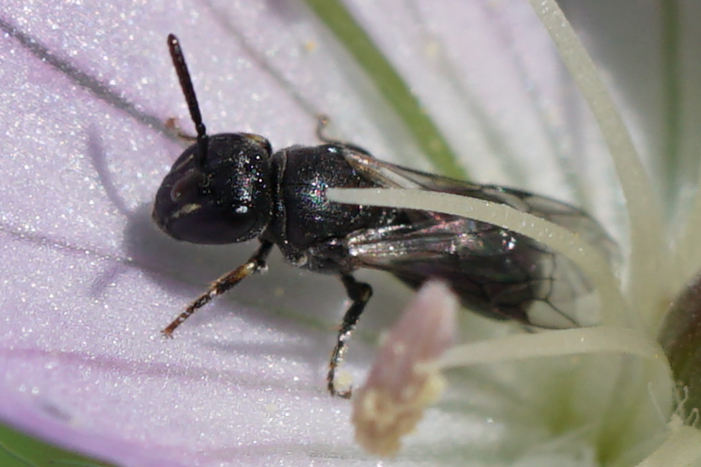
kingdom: Animalia
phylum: Arthropoda
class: Insecta
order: Hymenoptera
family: Colletidae
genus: Hylaeus
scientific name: Hylaeus mesillae
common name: Mesilla masked bee
